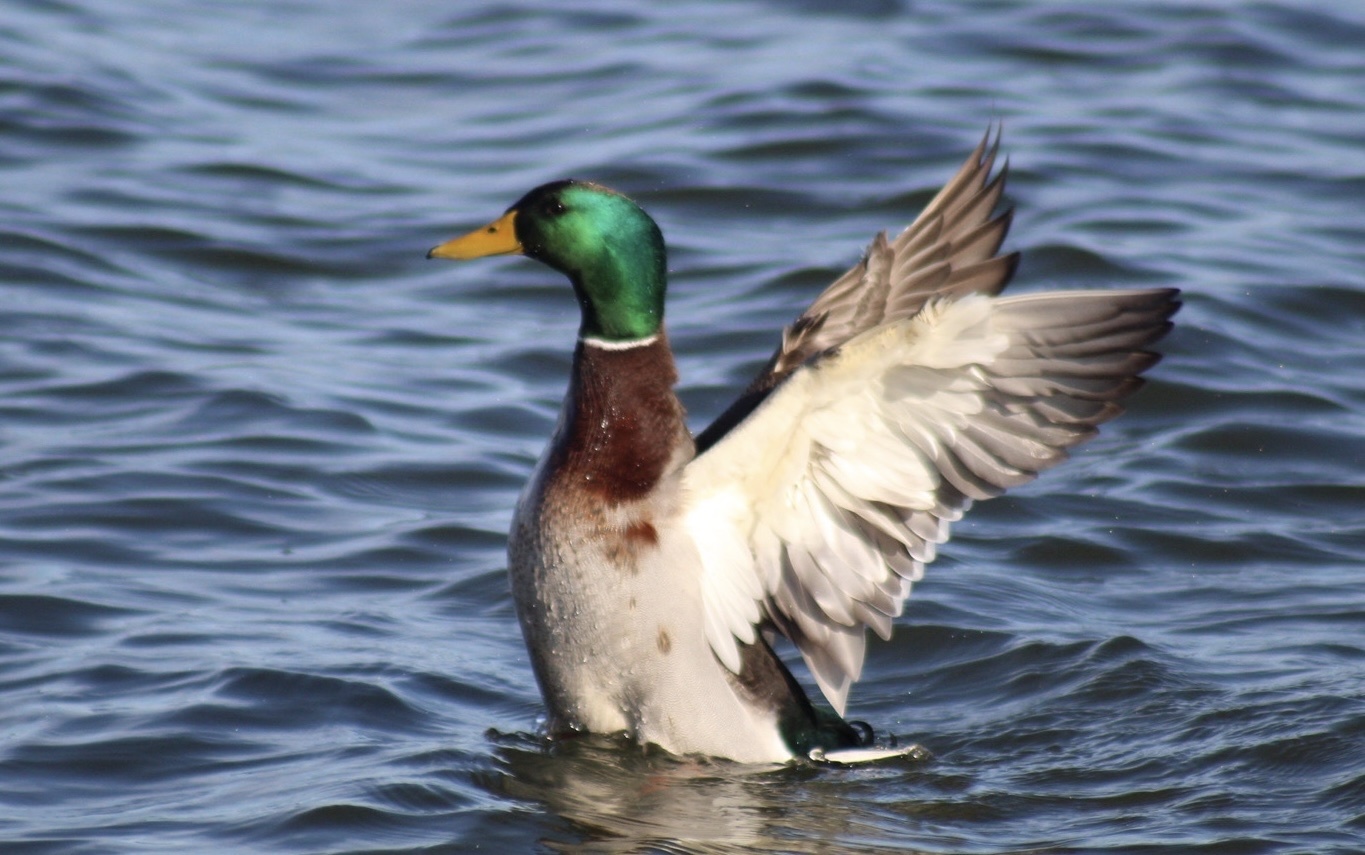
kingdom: Animalia
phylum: Chordata
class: Aves
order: Anseriformes
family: Anatidae
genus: Anas
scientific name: Anas platyrhynchos
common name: Mallard
